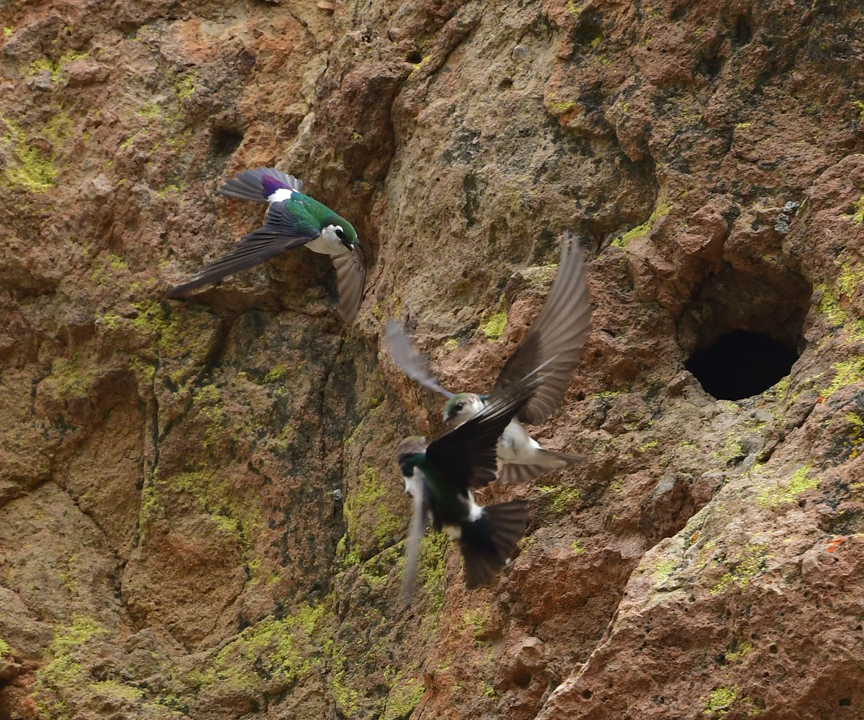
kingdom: Animalia
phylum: Chordata
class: Aves
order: Passeriformes
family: Hirundinidae
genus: Tachycineta
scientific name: Tachycineta thalassina
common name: Violet-green swallow
